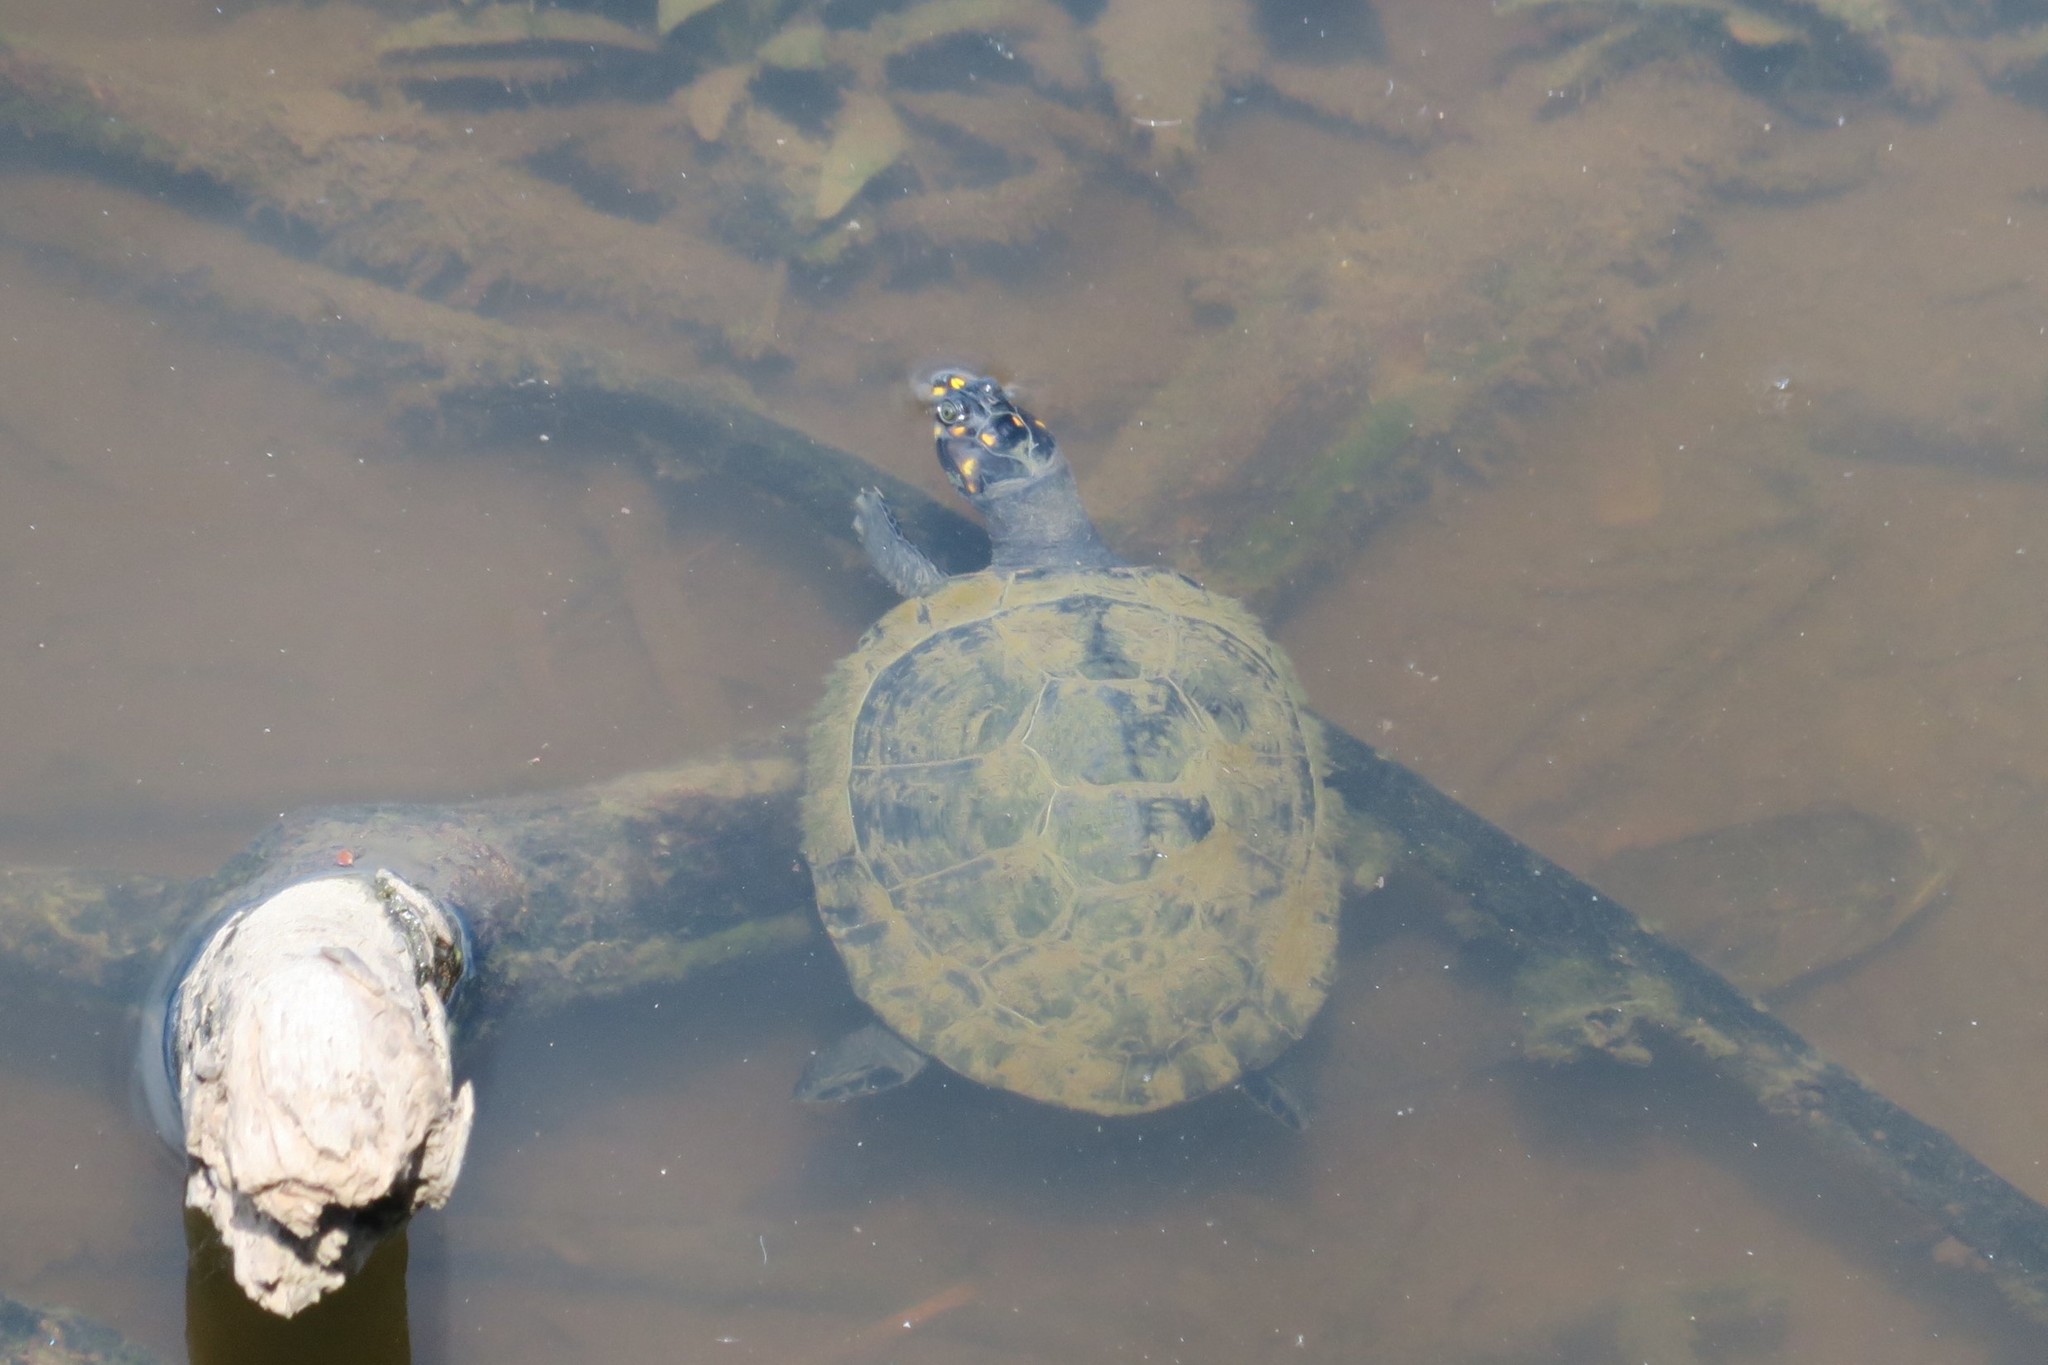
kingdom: Animalia
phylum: Chordata
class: Testudines
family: Podocnemididae
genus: Podocnemis
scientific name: Podocnemis unifilis
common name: Yellow-spotted amazon river turtle
